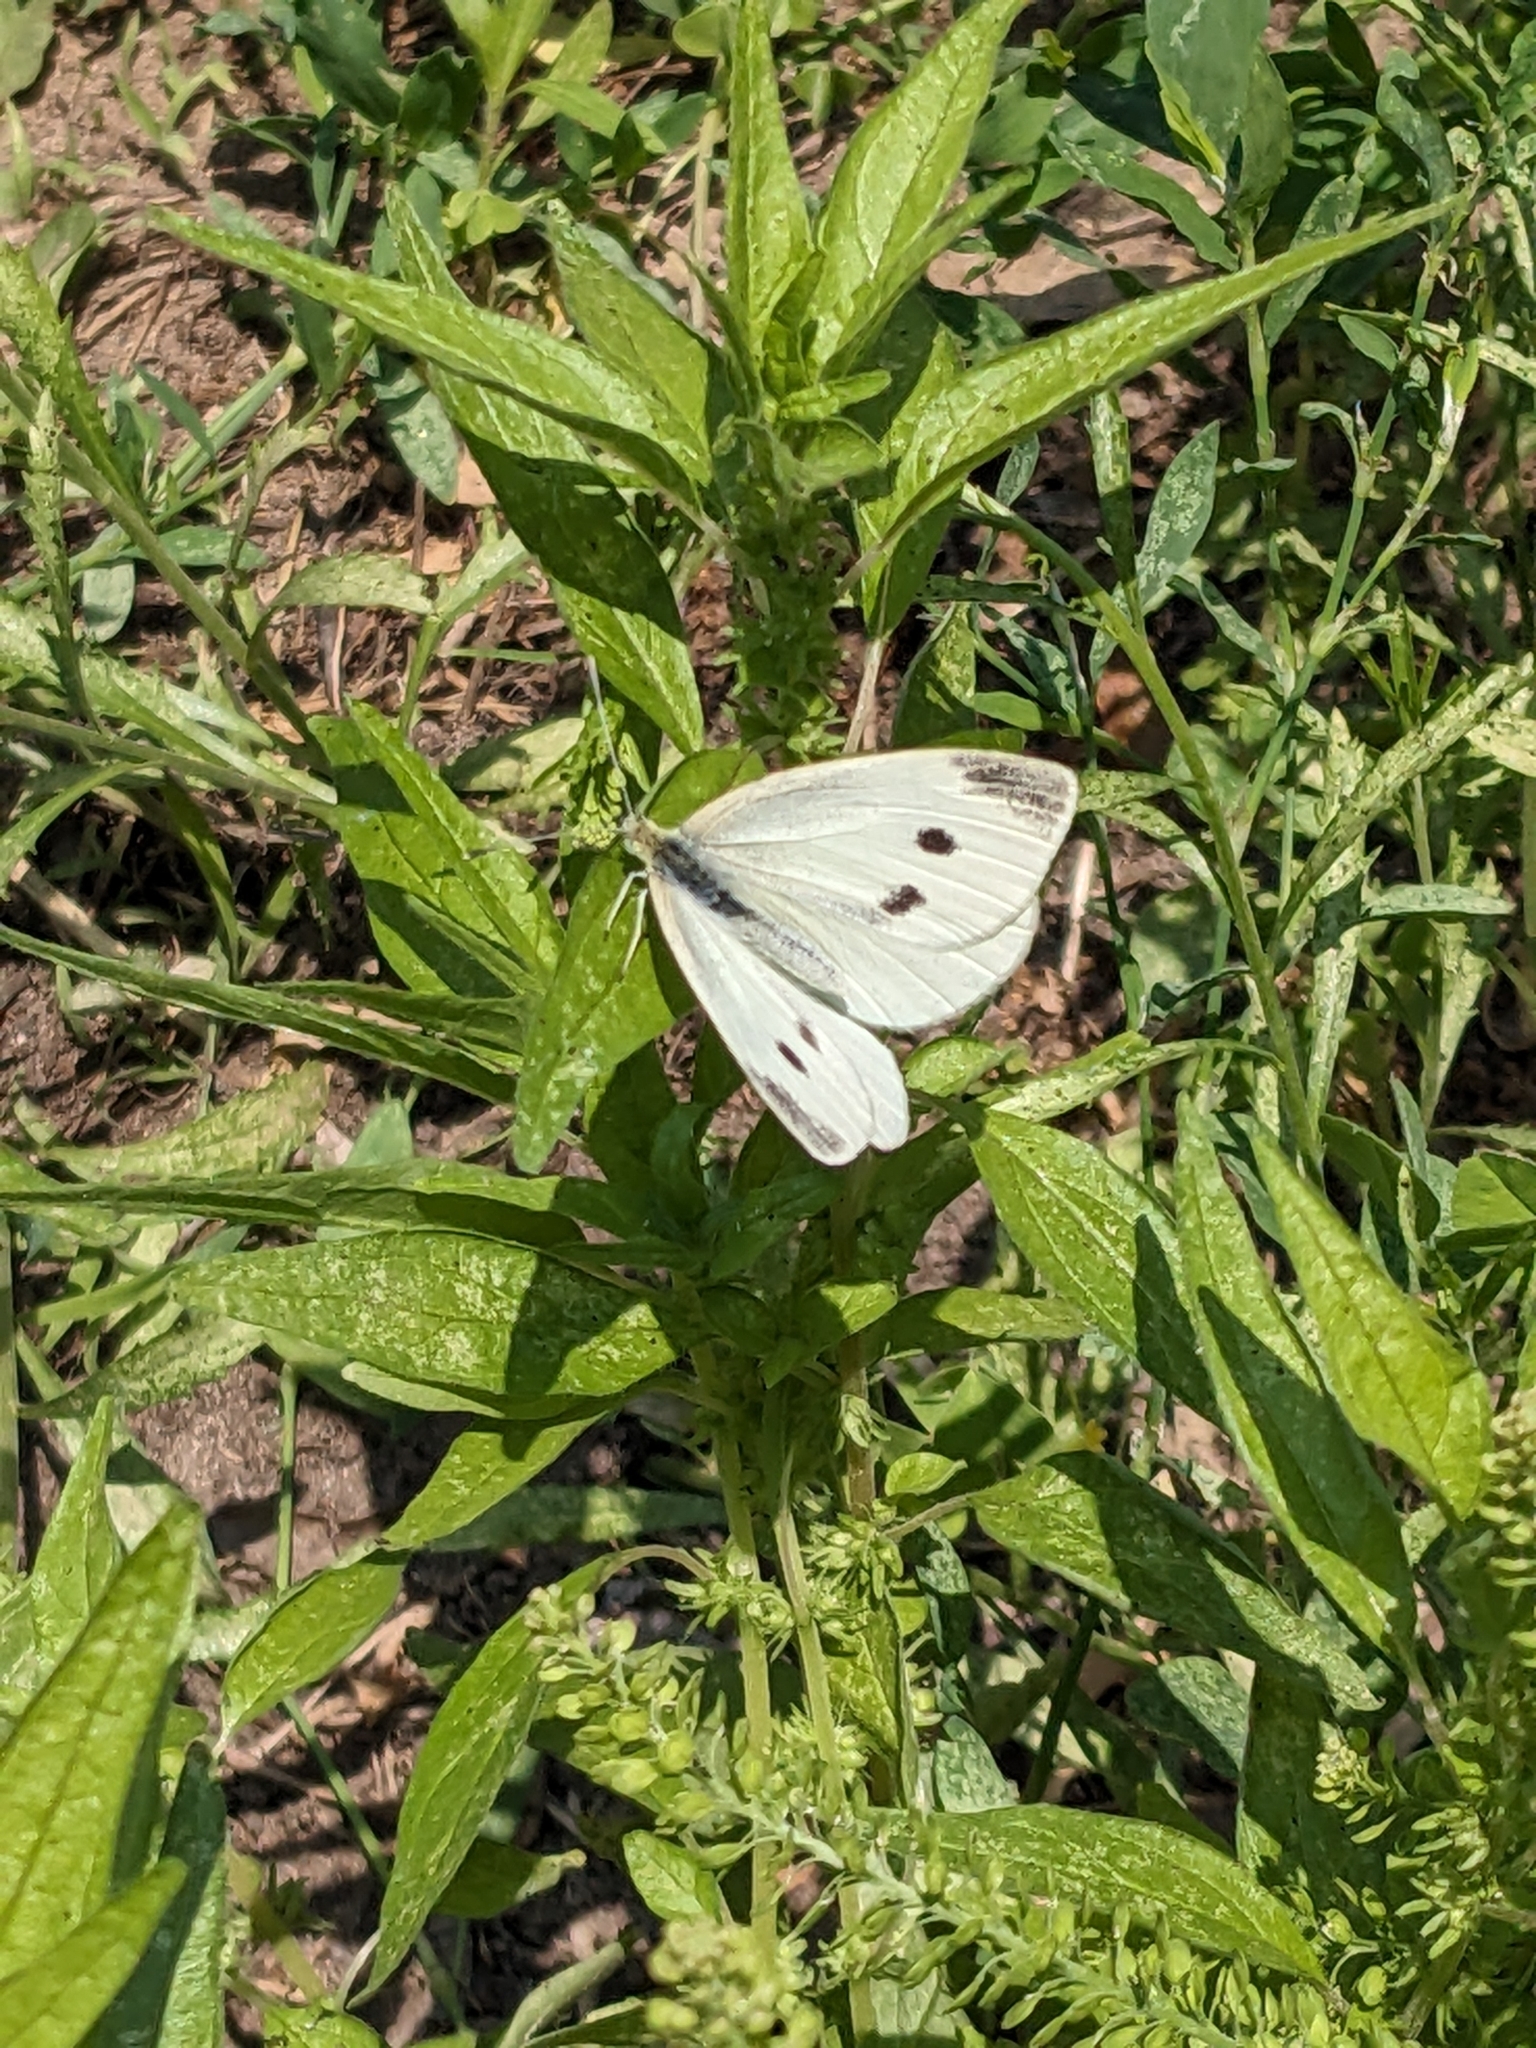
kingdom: Animalia
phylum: Arthropoda
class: Insecta
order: Lepidoptera
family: Pieridae
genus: Pieris
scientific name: Pieris rapae
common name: Small white
